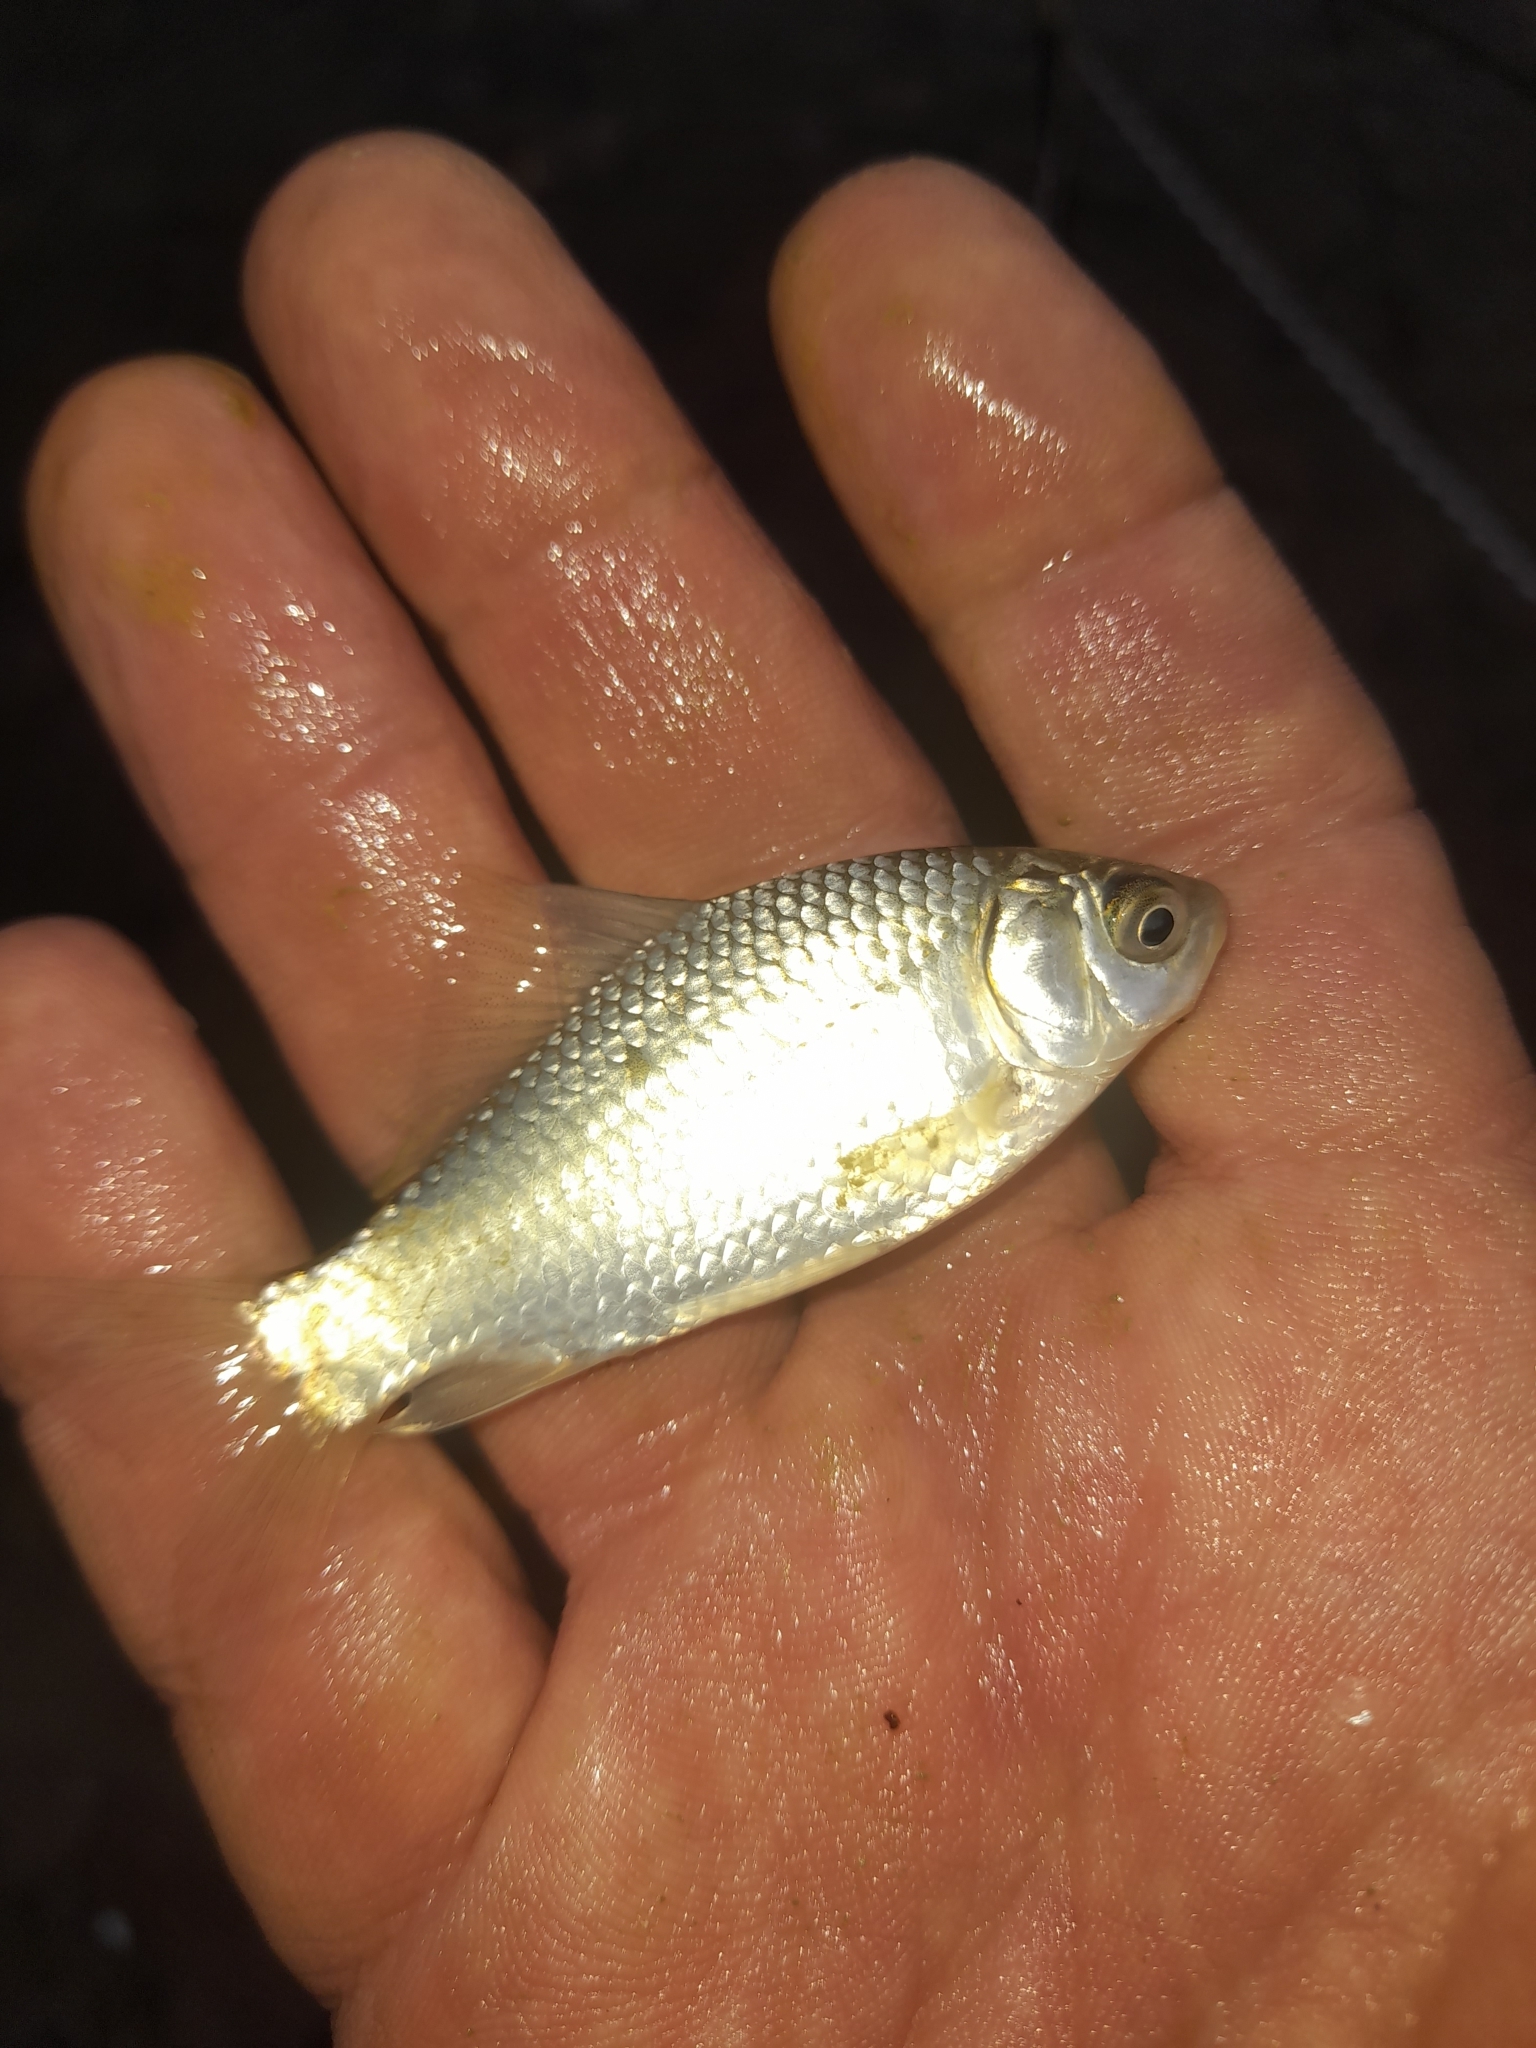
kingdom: Animalia
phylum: Chordata
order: Cypriniformes
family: Cyprinidae
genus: Carassius
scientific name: Carassius gibelio
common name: Prussian carp
